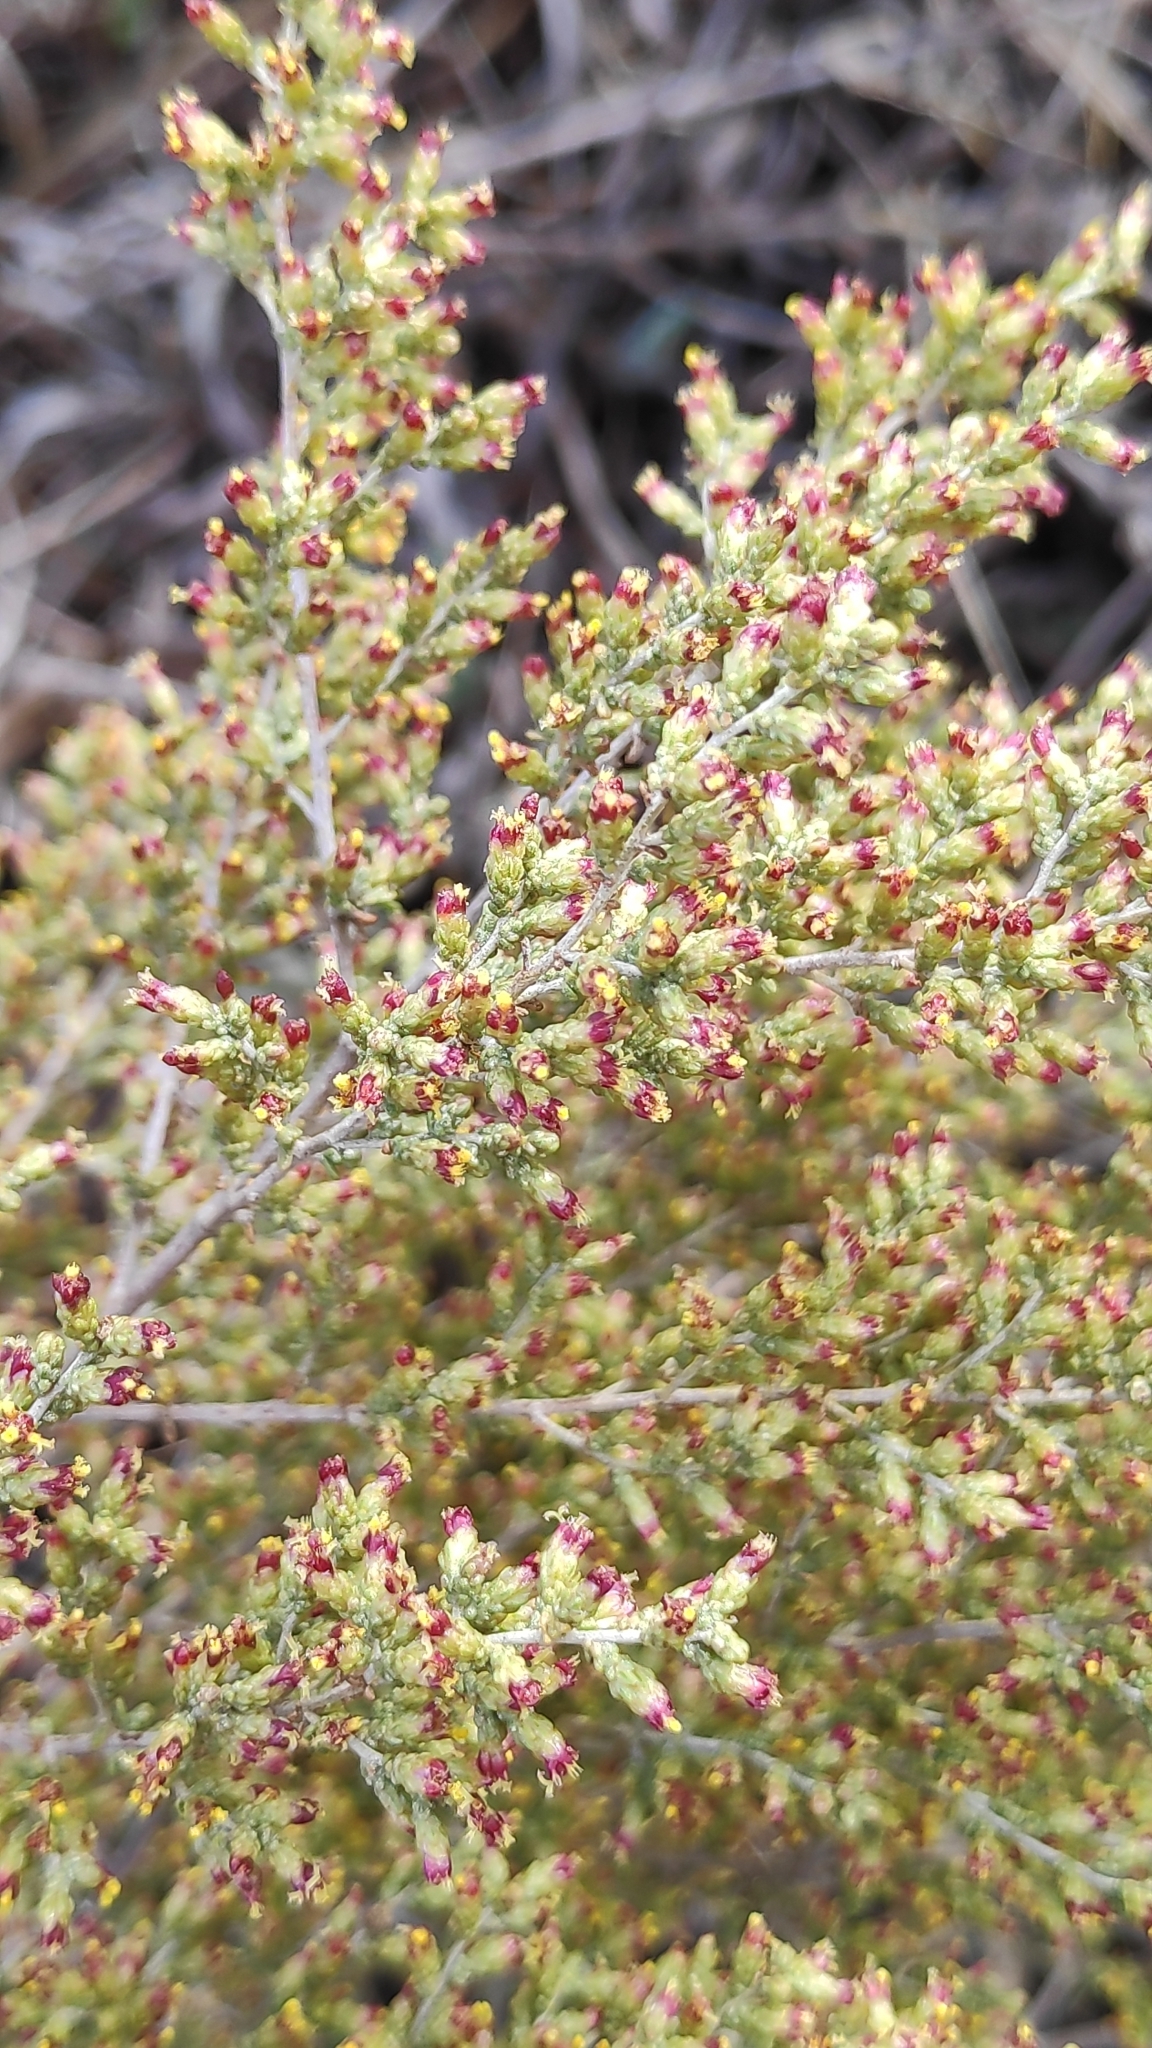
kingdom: Plantae
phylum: Tracheophyta
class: Magnoliopsida
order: Asterales
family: Asteraceae
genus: Artemisia
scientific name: Artemisia barrelieri
